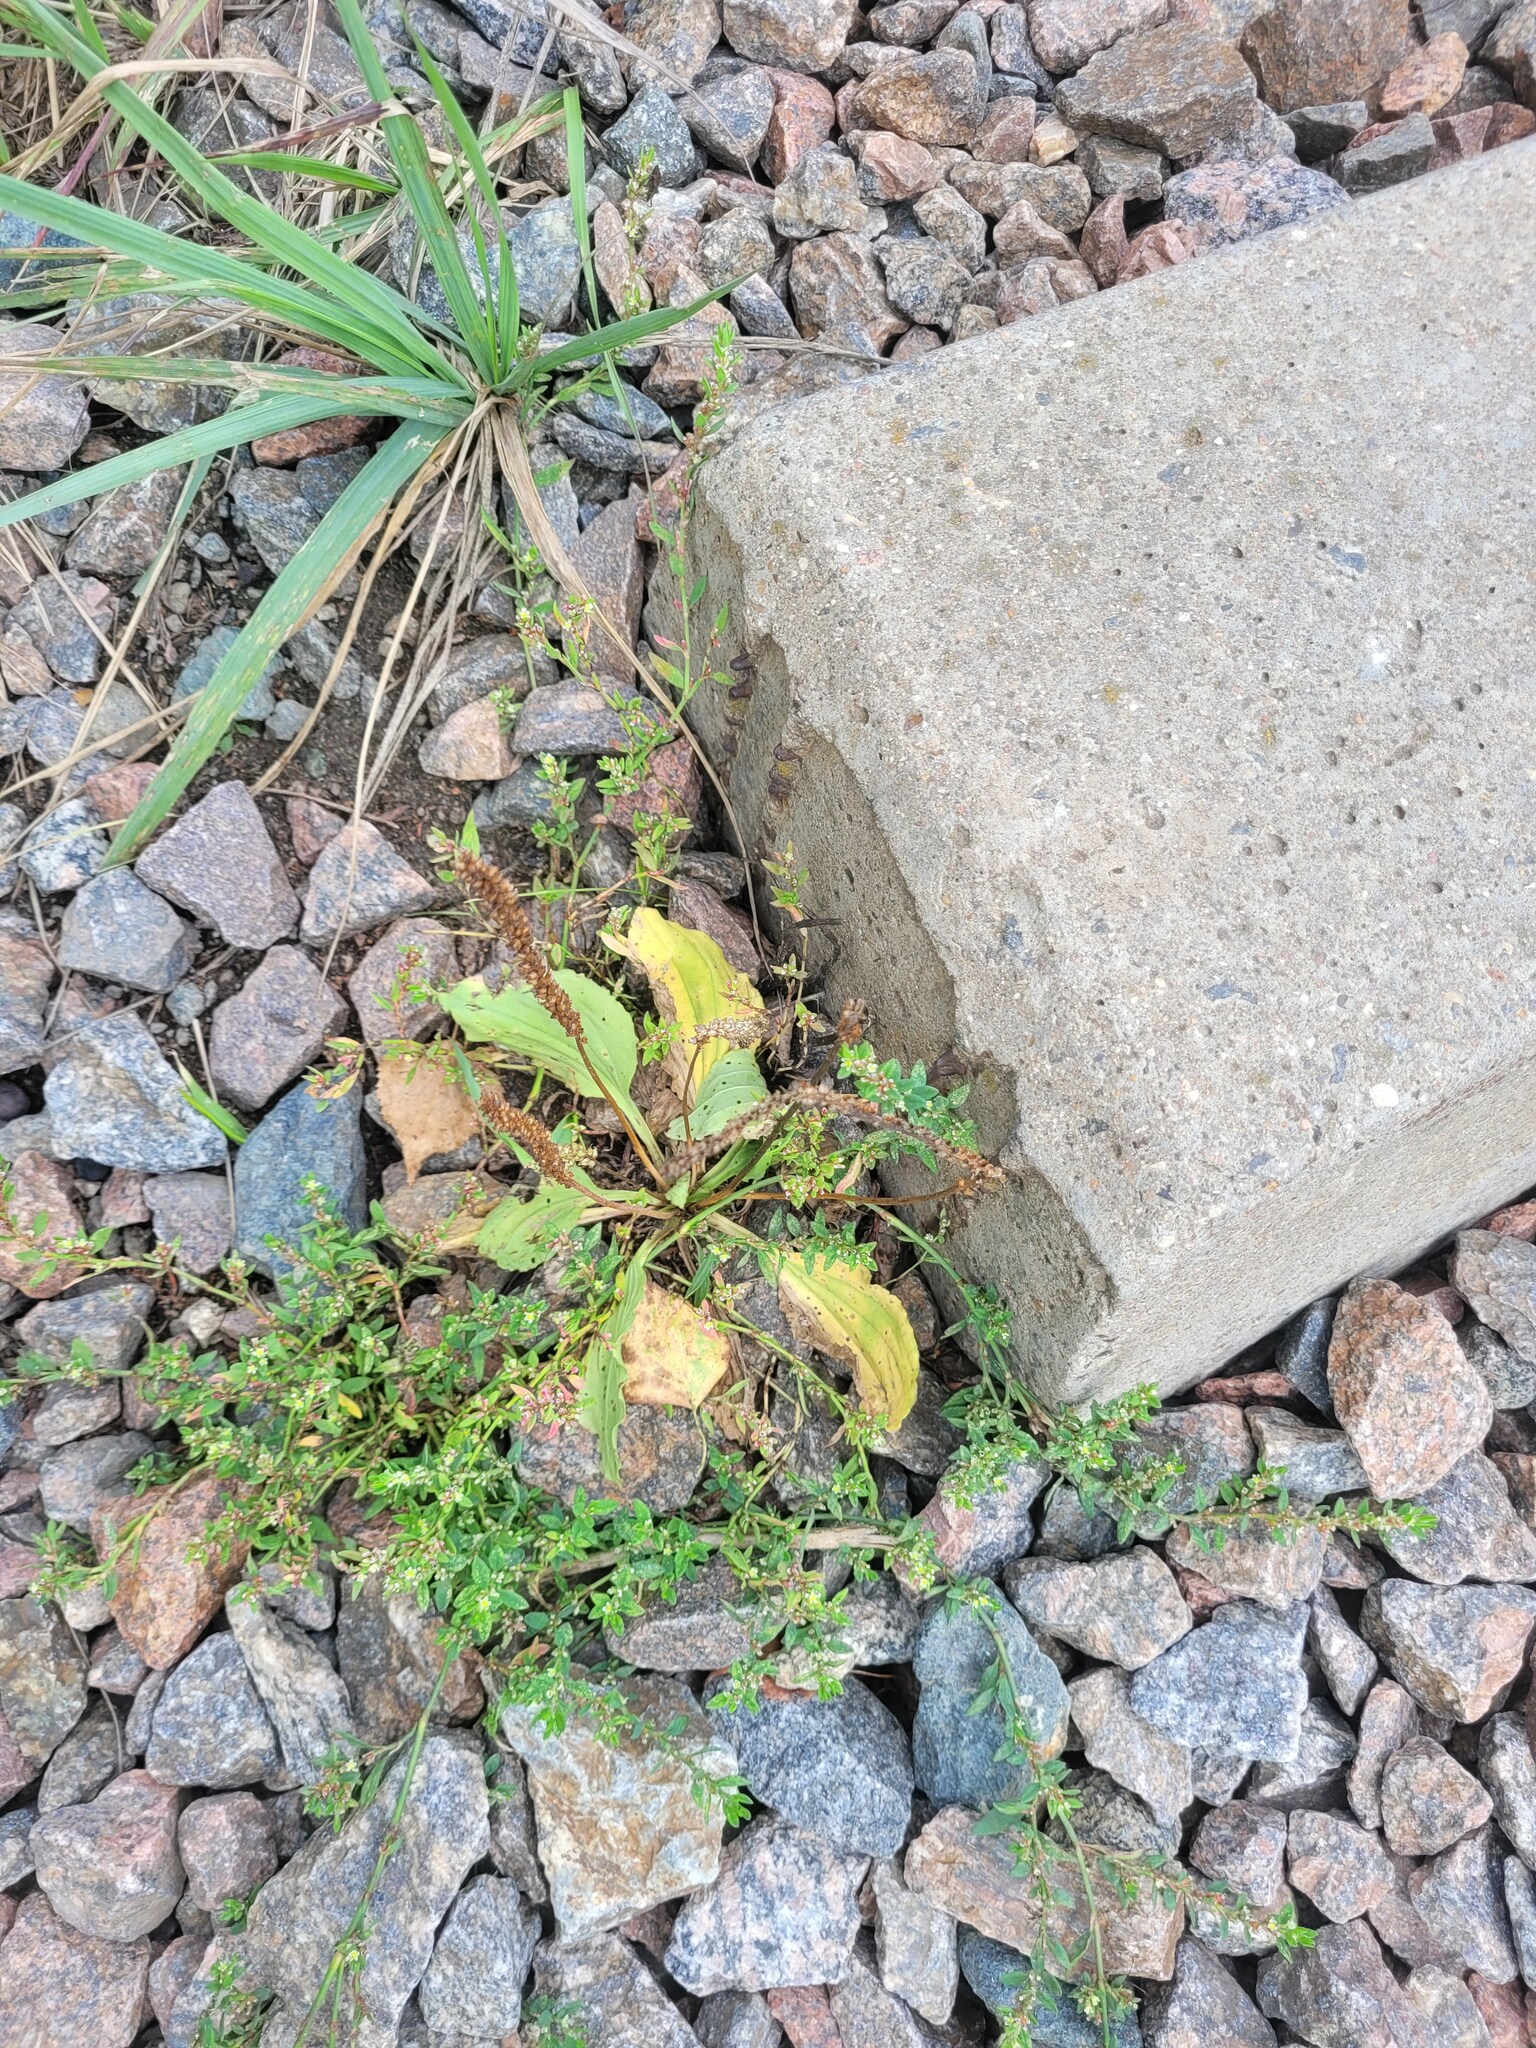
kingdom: Plantae
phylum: Tracheophyta
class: Magnoliopsida
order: Lamiales
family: Plantaginaceae
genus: Plantago
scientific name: Plantago major
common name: Common plantain
